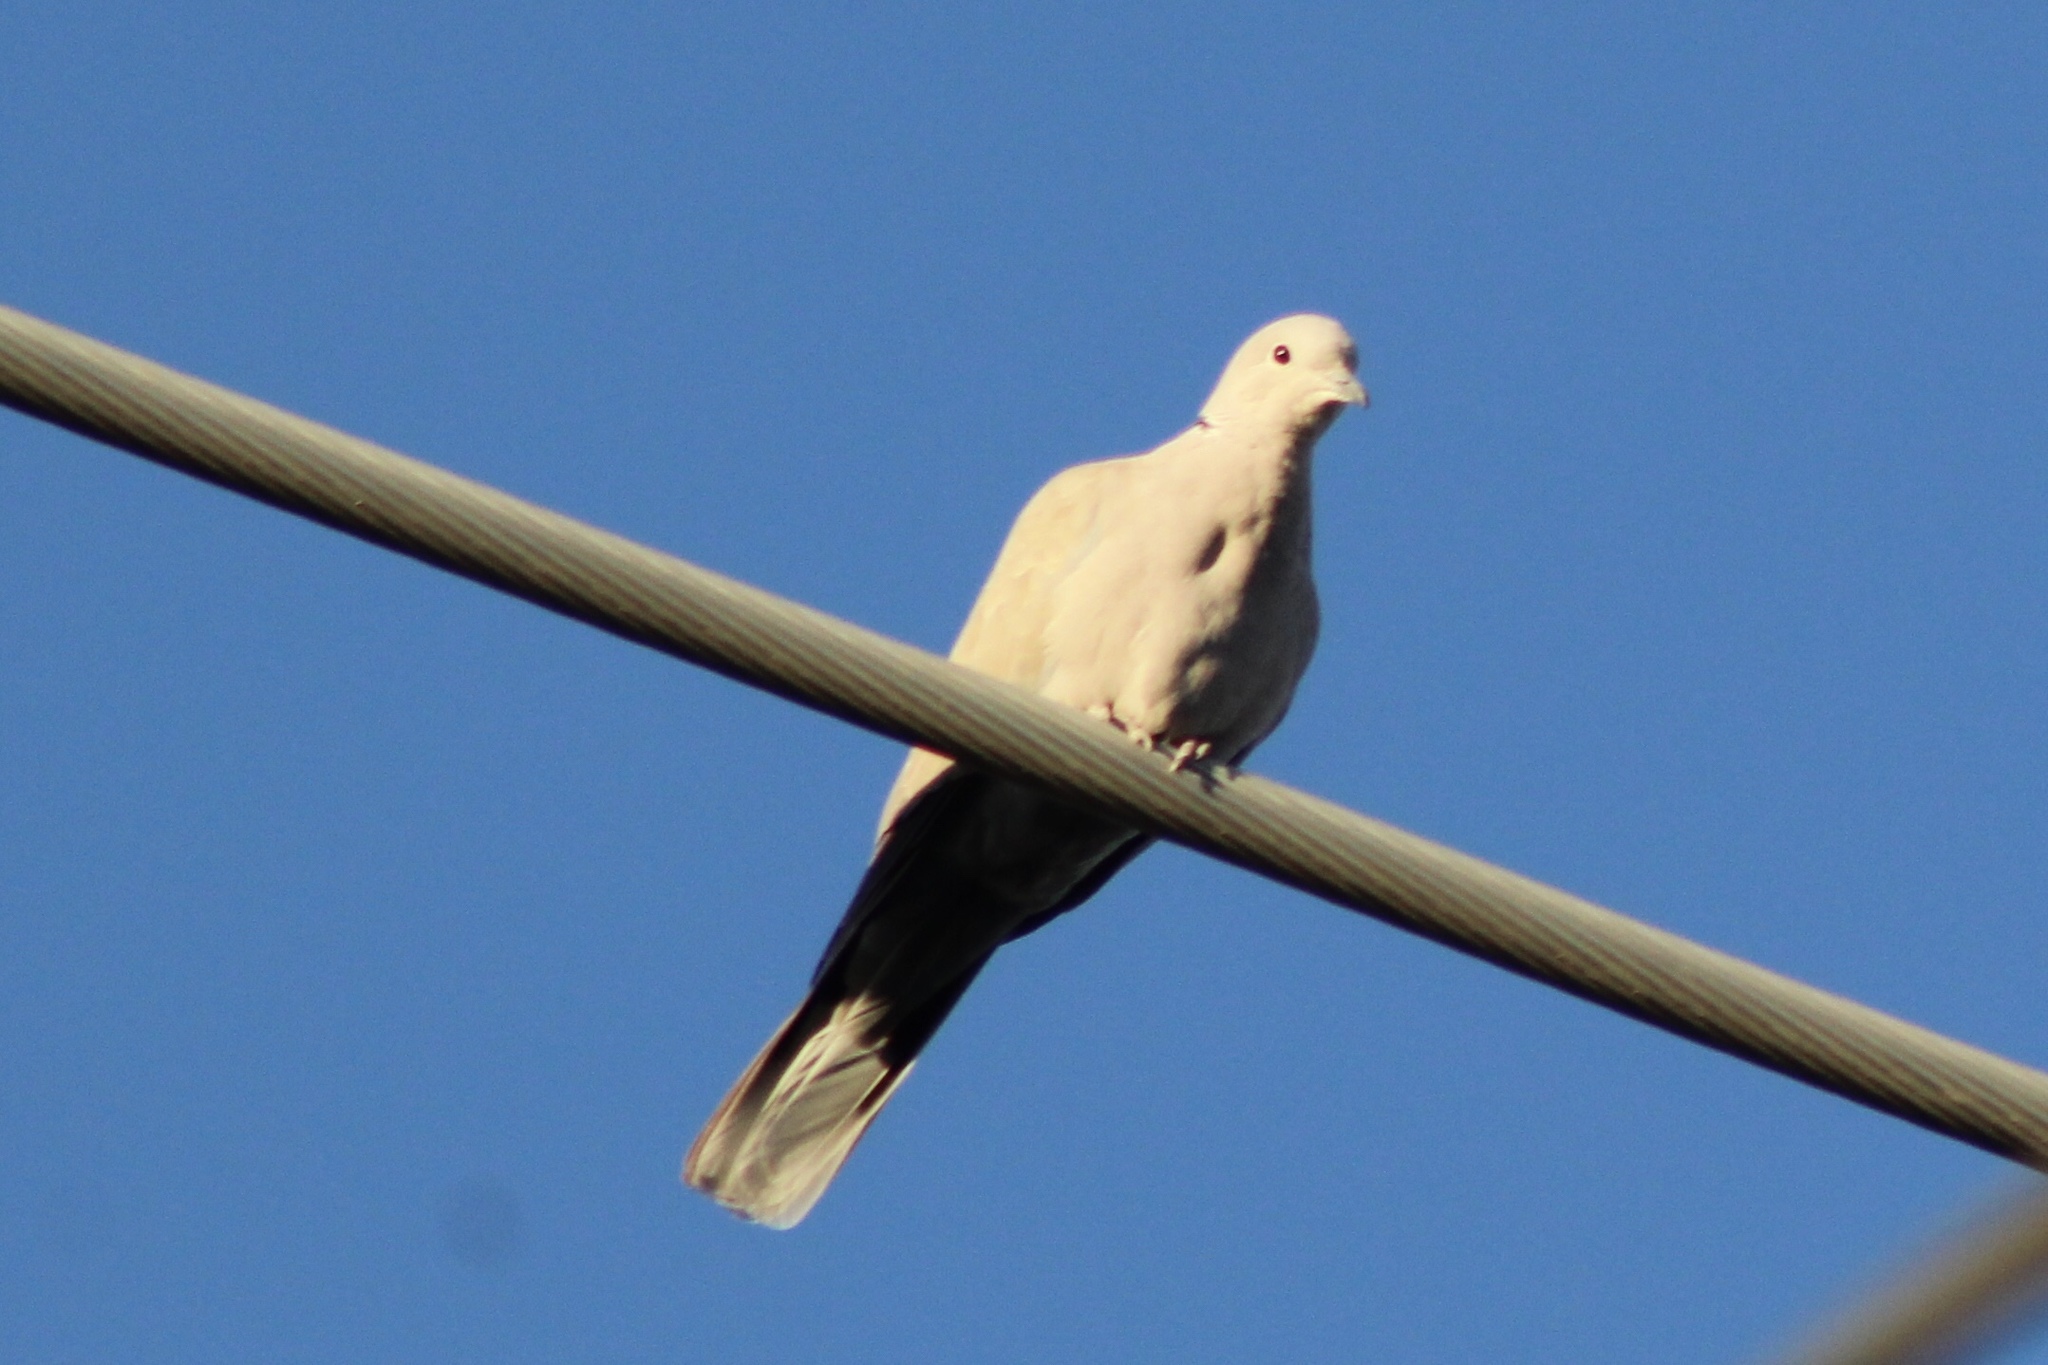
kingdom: Animalia
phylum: Chordata
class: Aves
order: Columbiformes
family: Columbidae
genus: Streptopelia
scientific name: Streptopelia decaocto
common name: Eurasian collared dove
